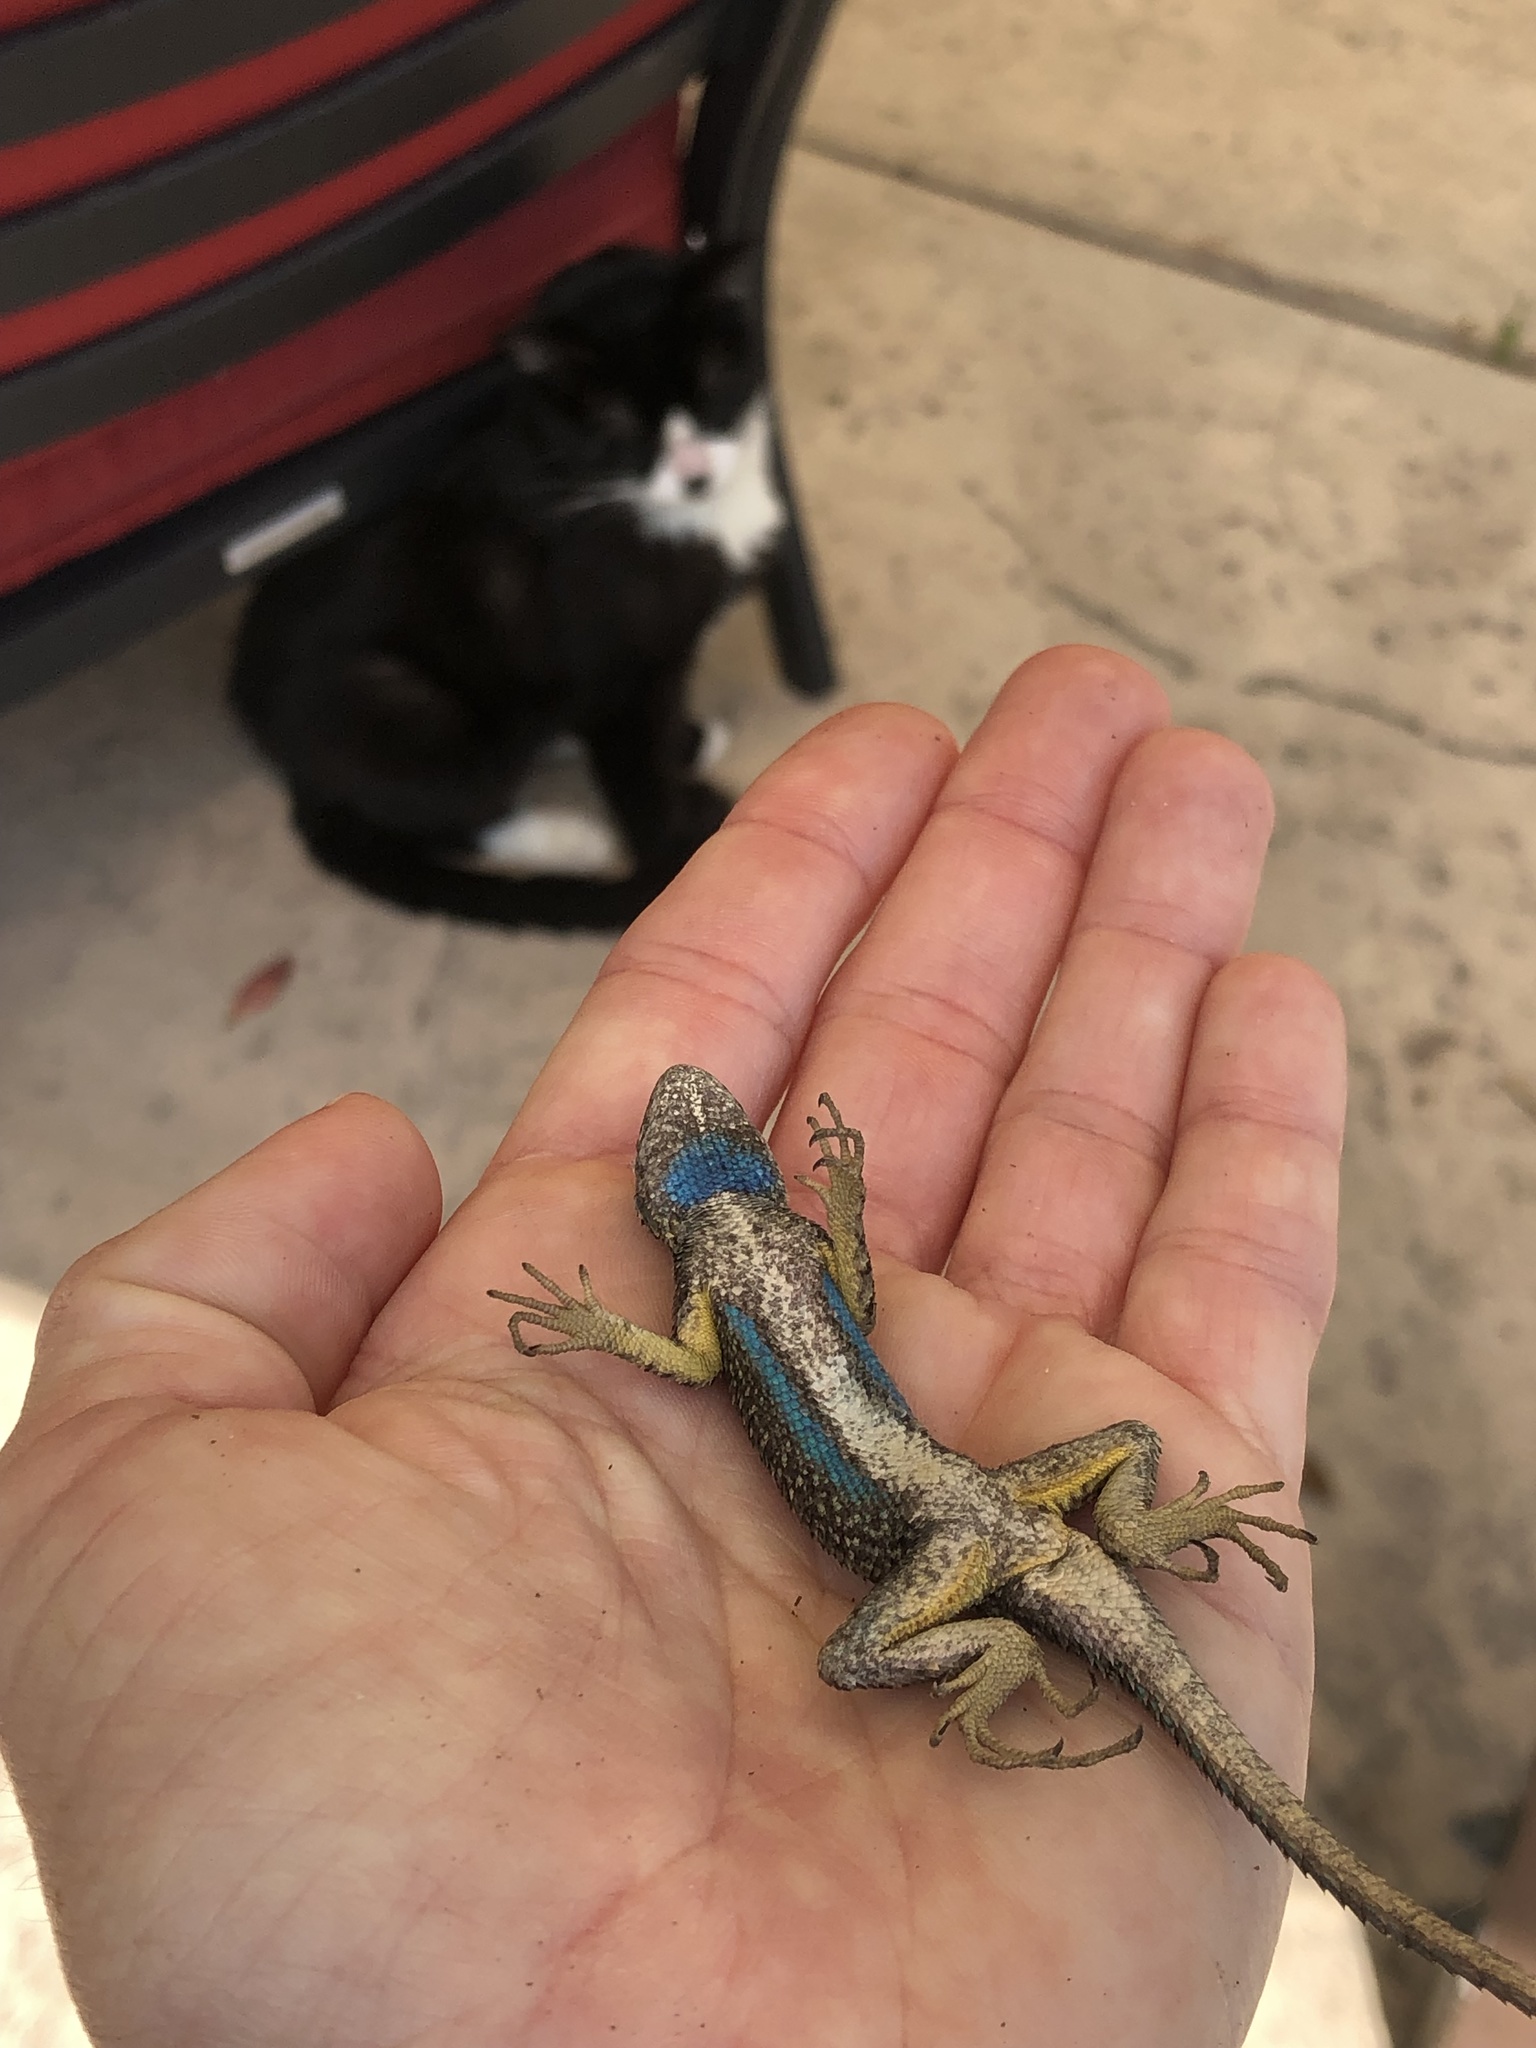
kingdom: Animalia
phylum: Chordata
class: Squamata
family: Phrynosomatidae
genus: Sceloporus
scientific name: Sceloporus occidentalis
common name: Western fence lizard
